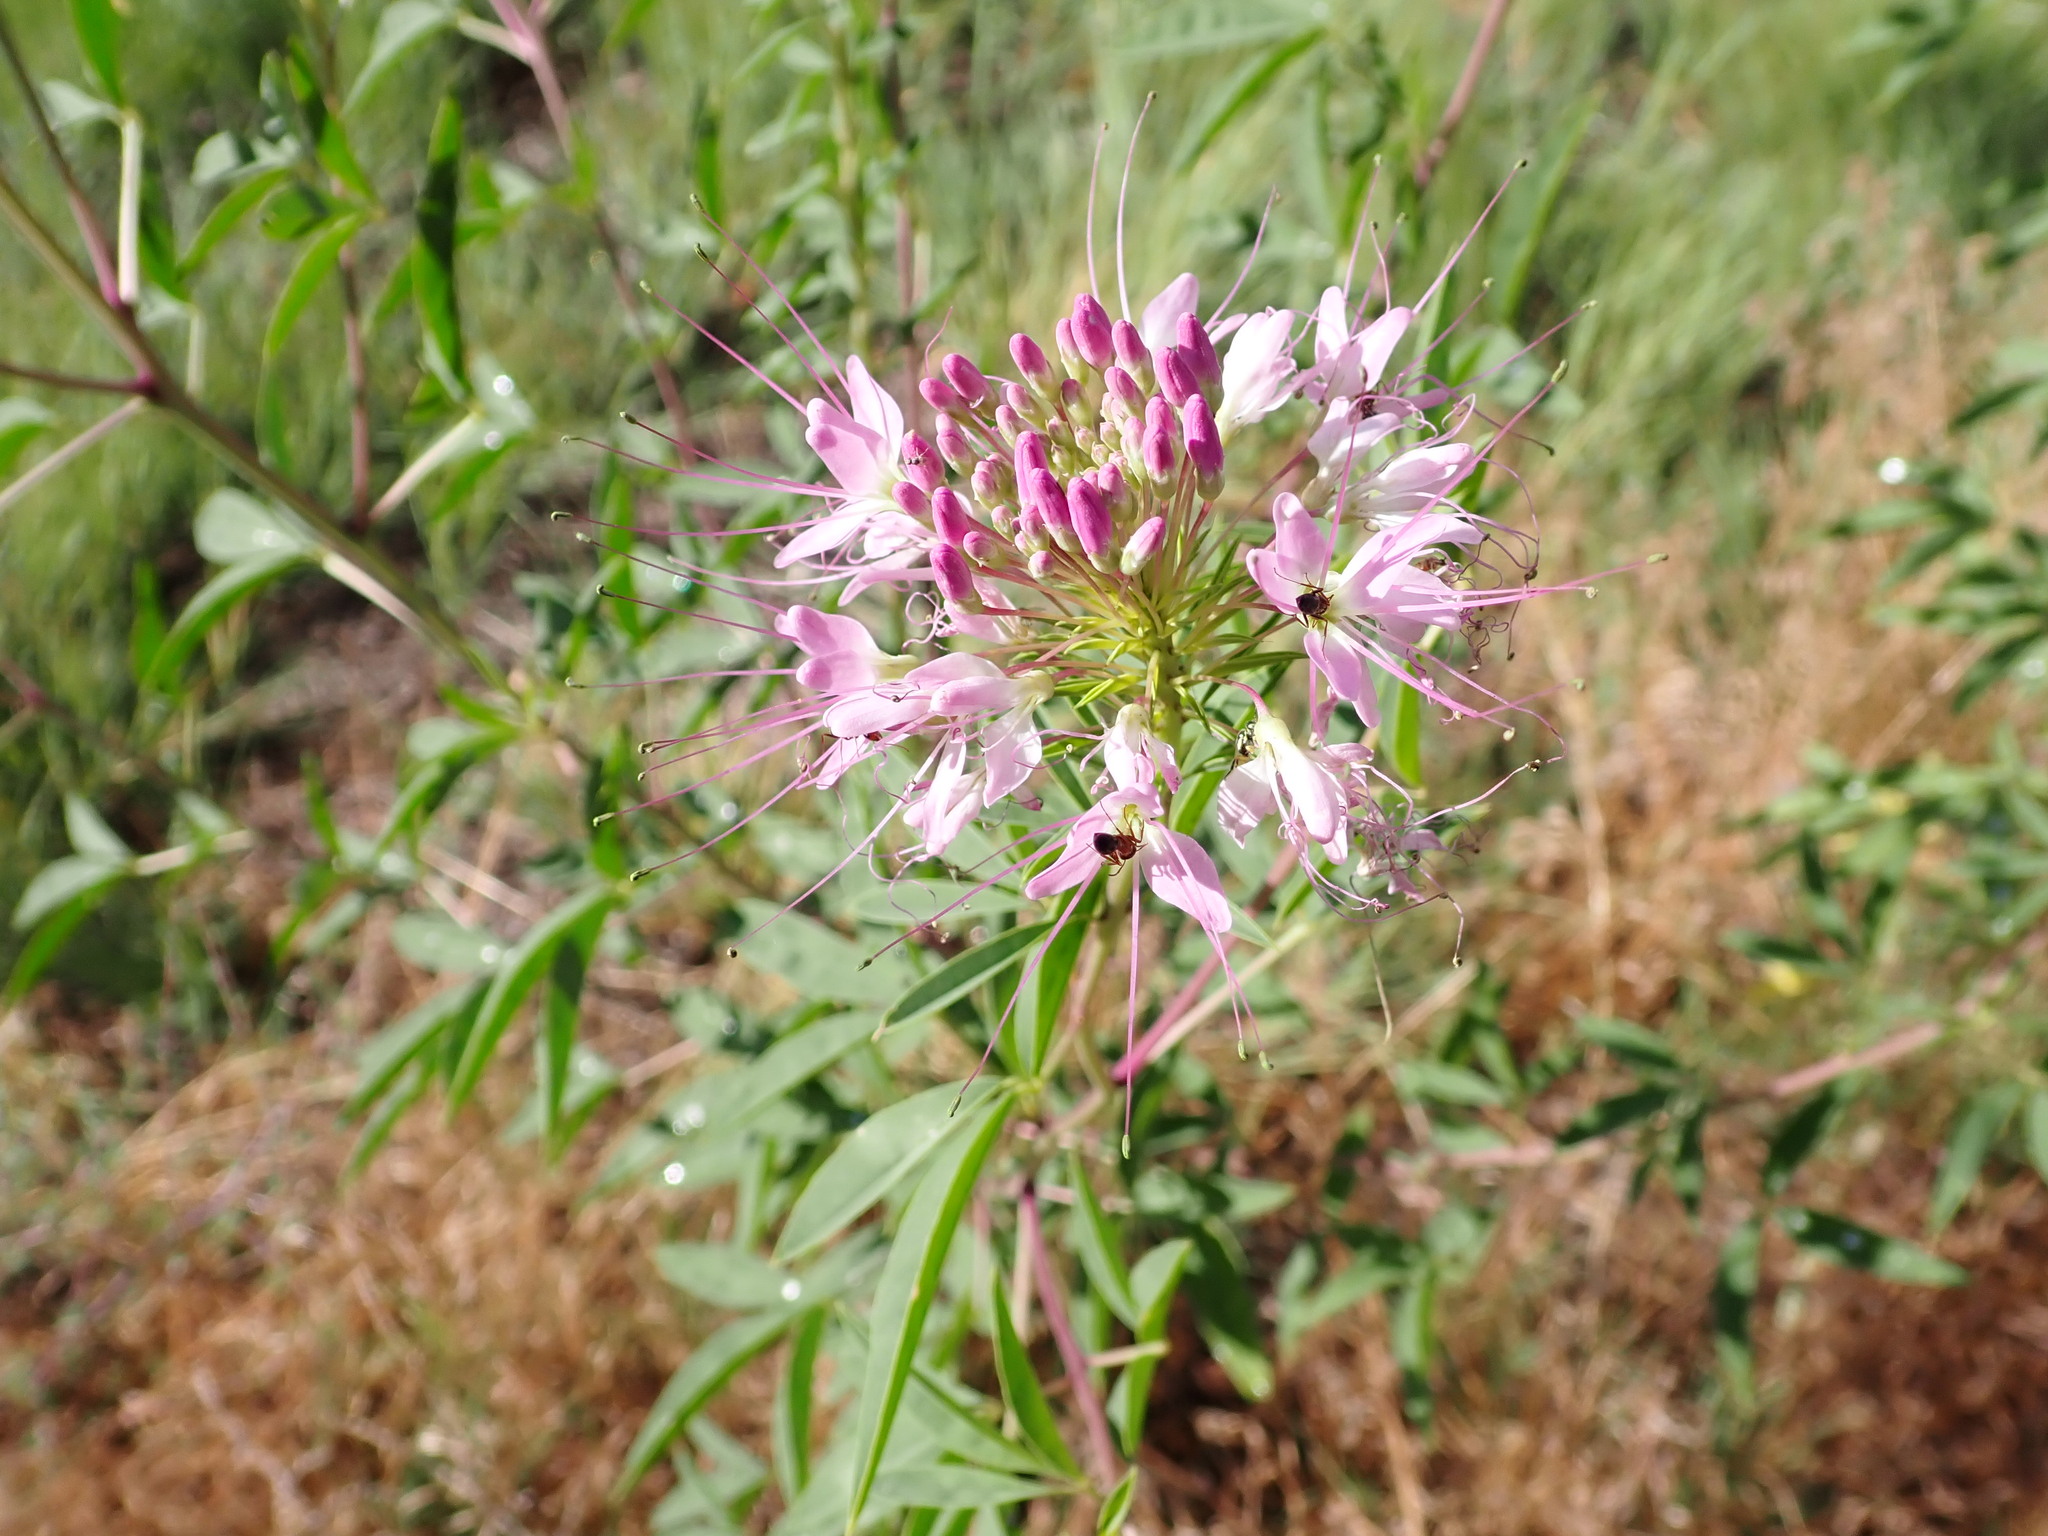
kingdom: Plantae
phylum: Tracheophyta
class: Magnoliopsida
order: Brassicales
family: Cleomaceae
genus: Cleomella
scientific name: Cleomella serrulata
